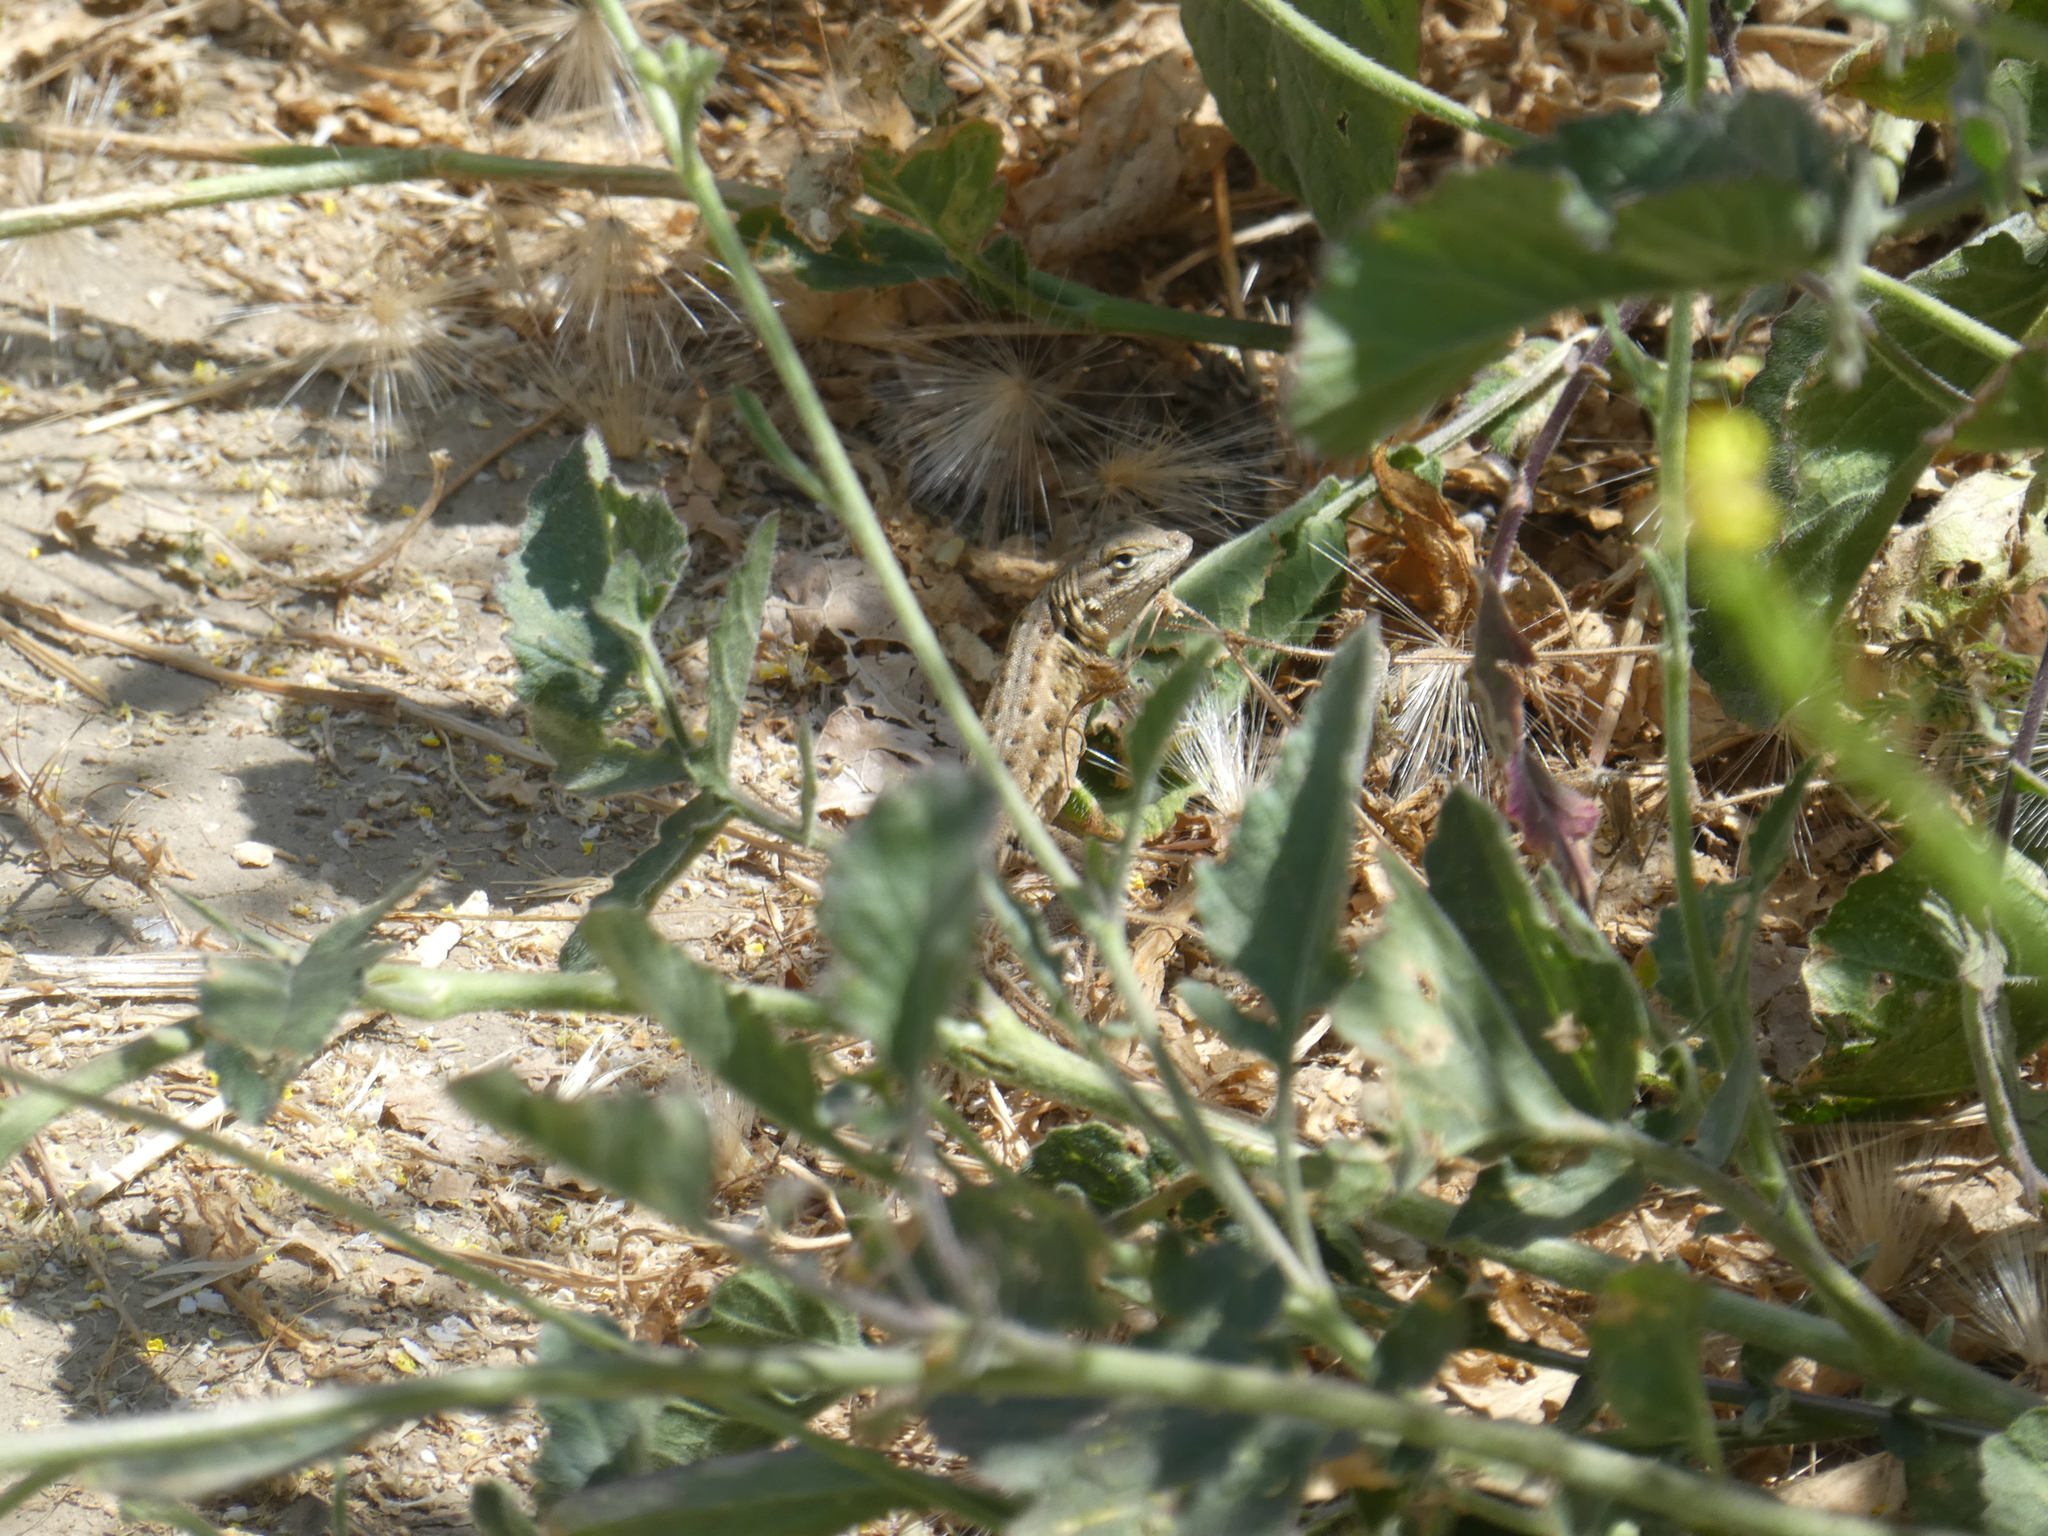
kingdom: Animalia
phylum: Chordata
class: Squamata
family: Phrynosomatidae
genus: Uta
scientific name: Uta stansburiana
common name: Side-blotched lizard
